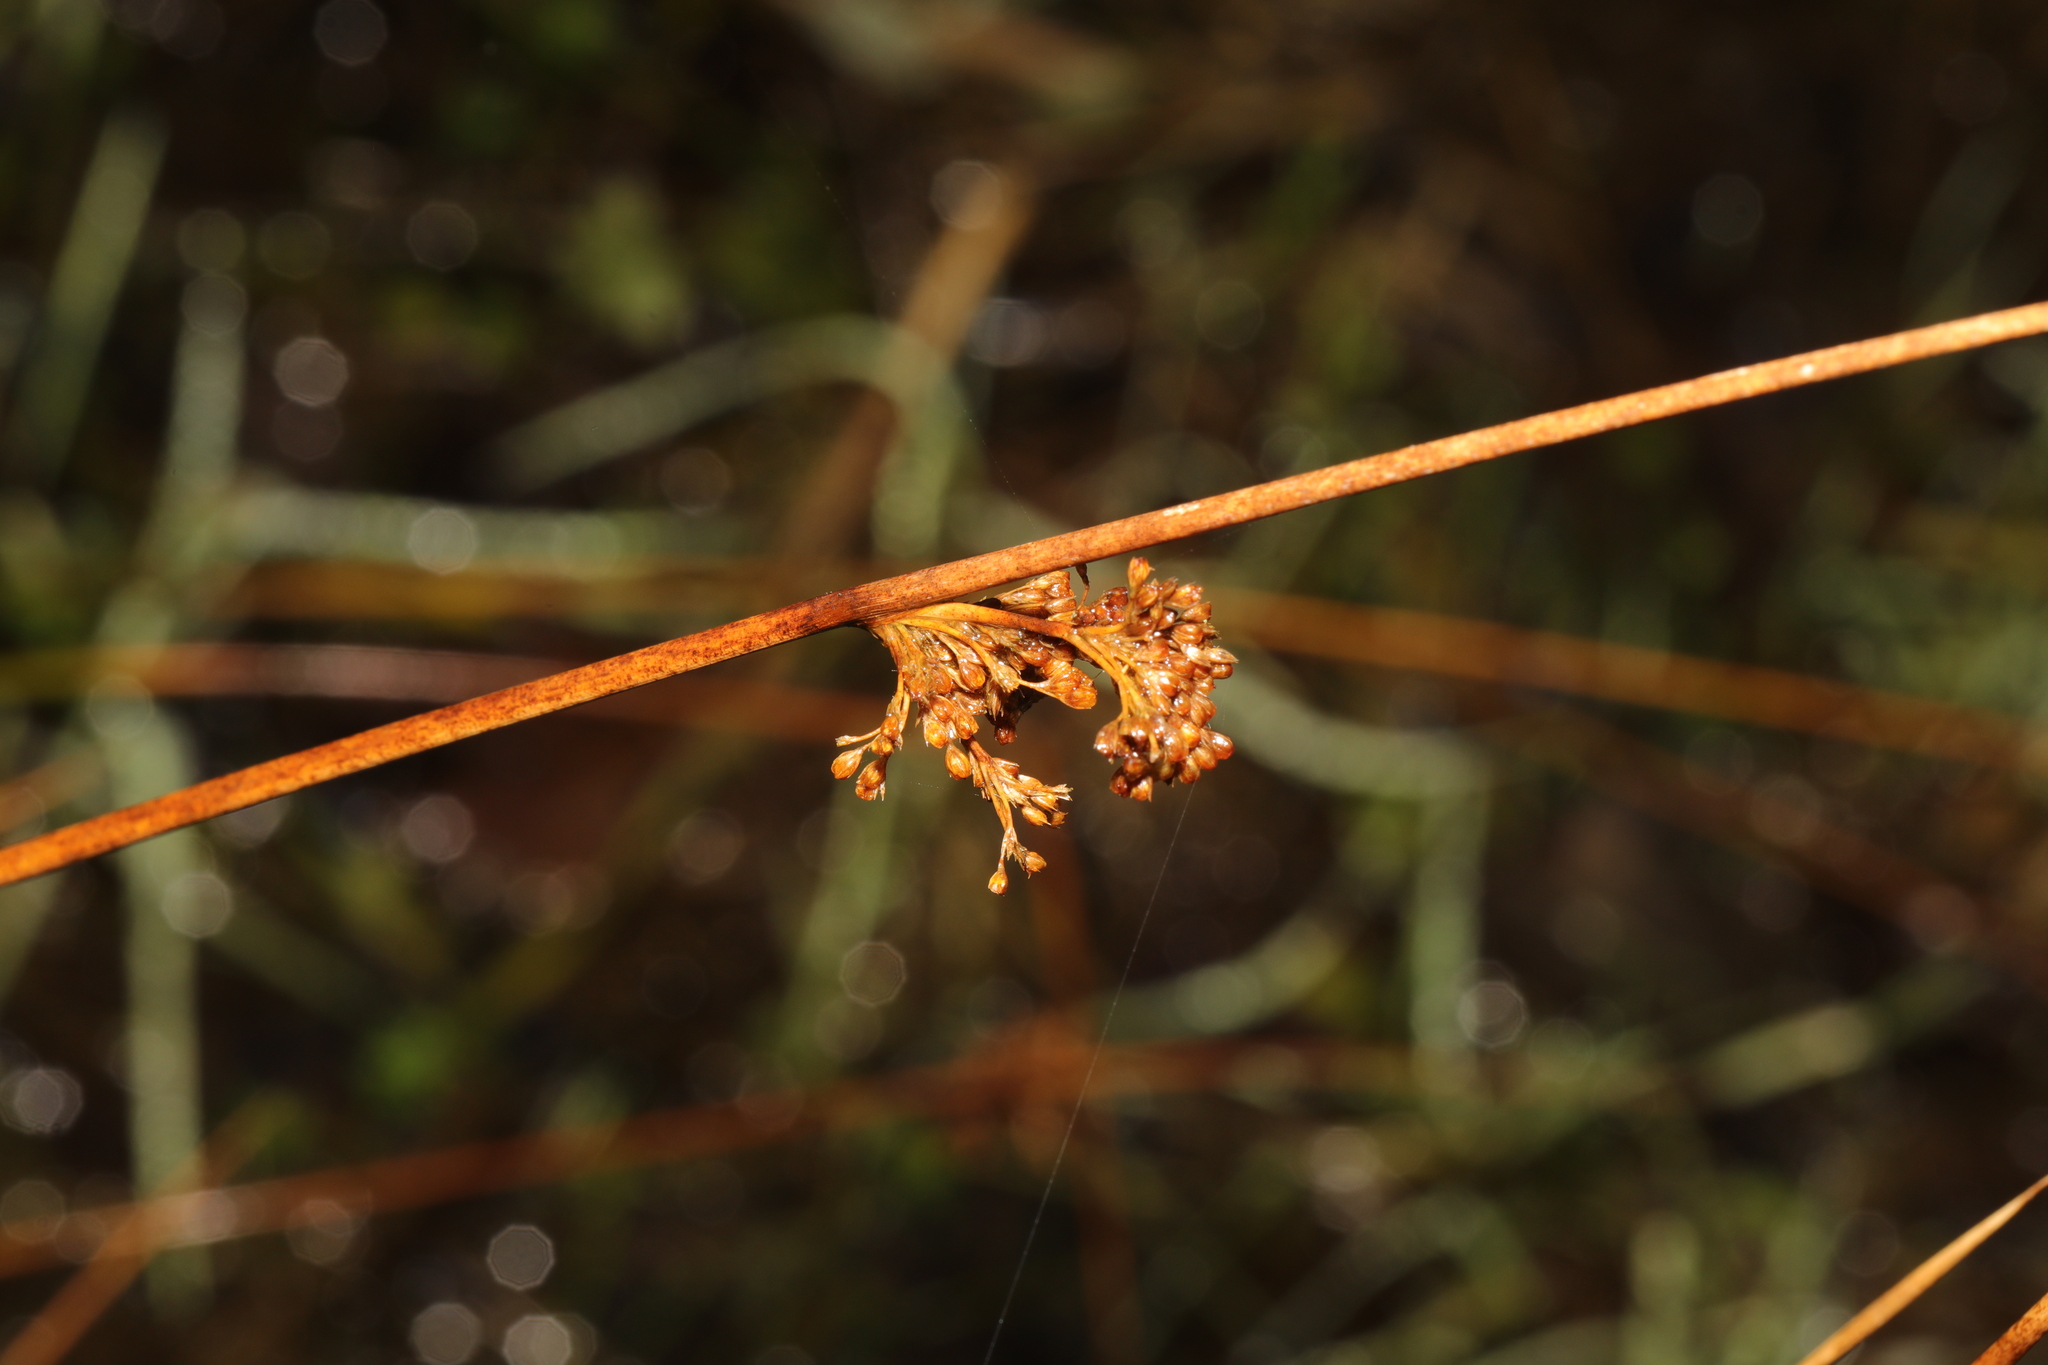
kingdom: Plantae
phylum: Tracheophyta
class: Liliopsida
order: Poales
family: Juncaceae
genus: Juncus
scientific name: Juncus effusus
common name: Soft rush
